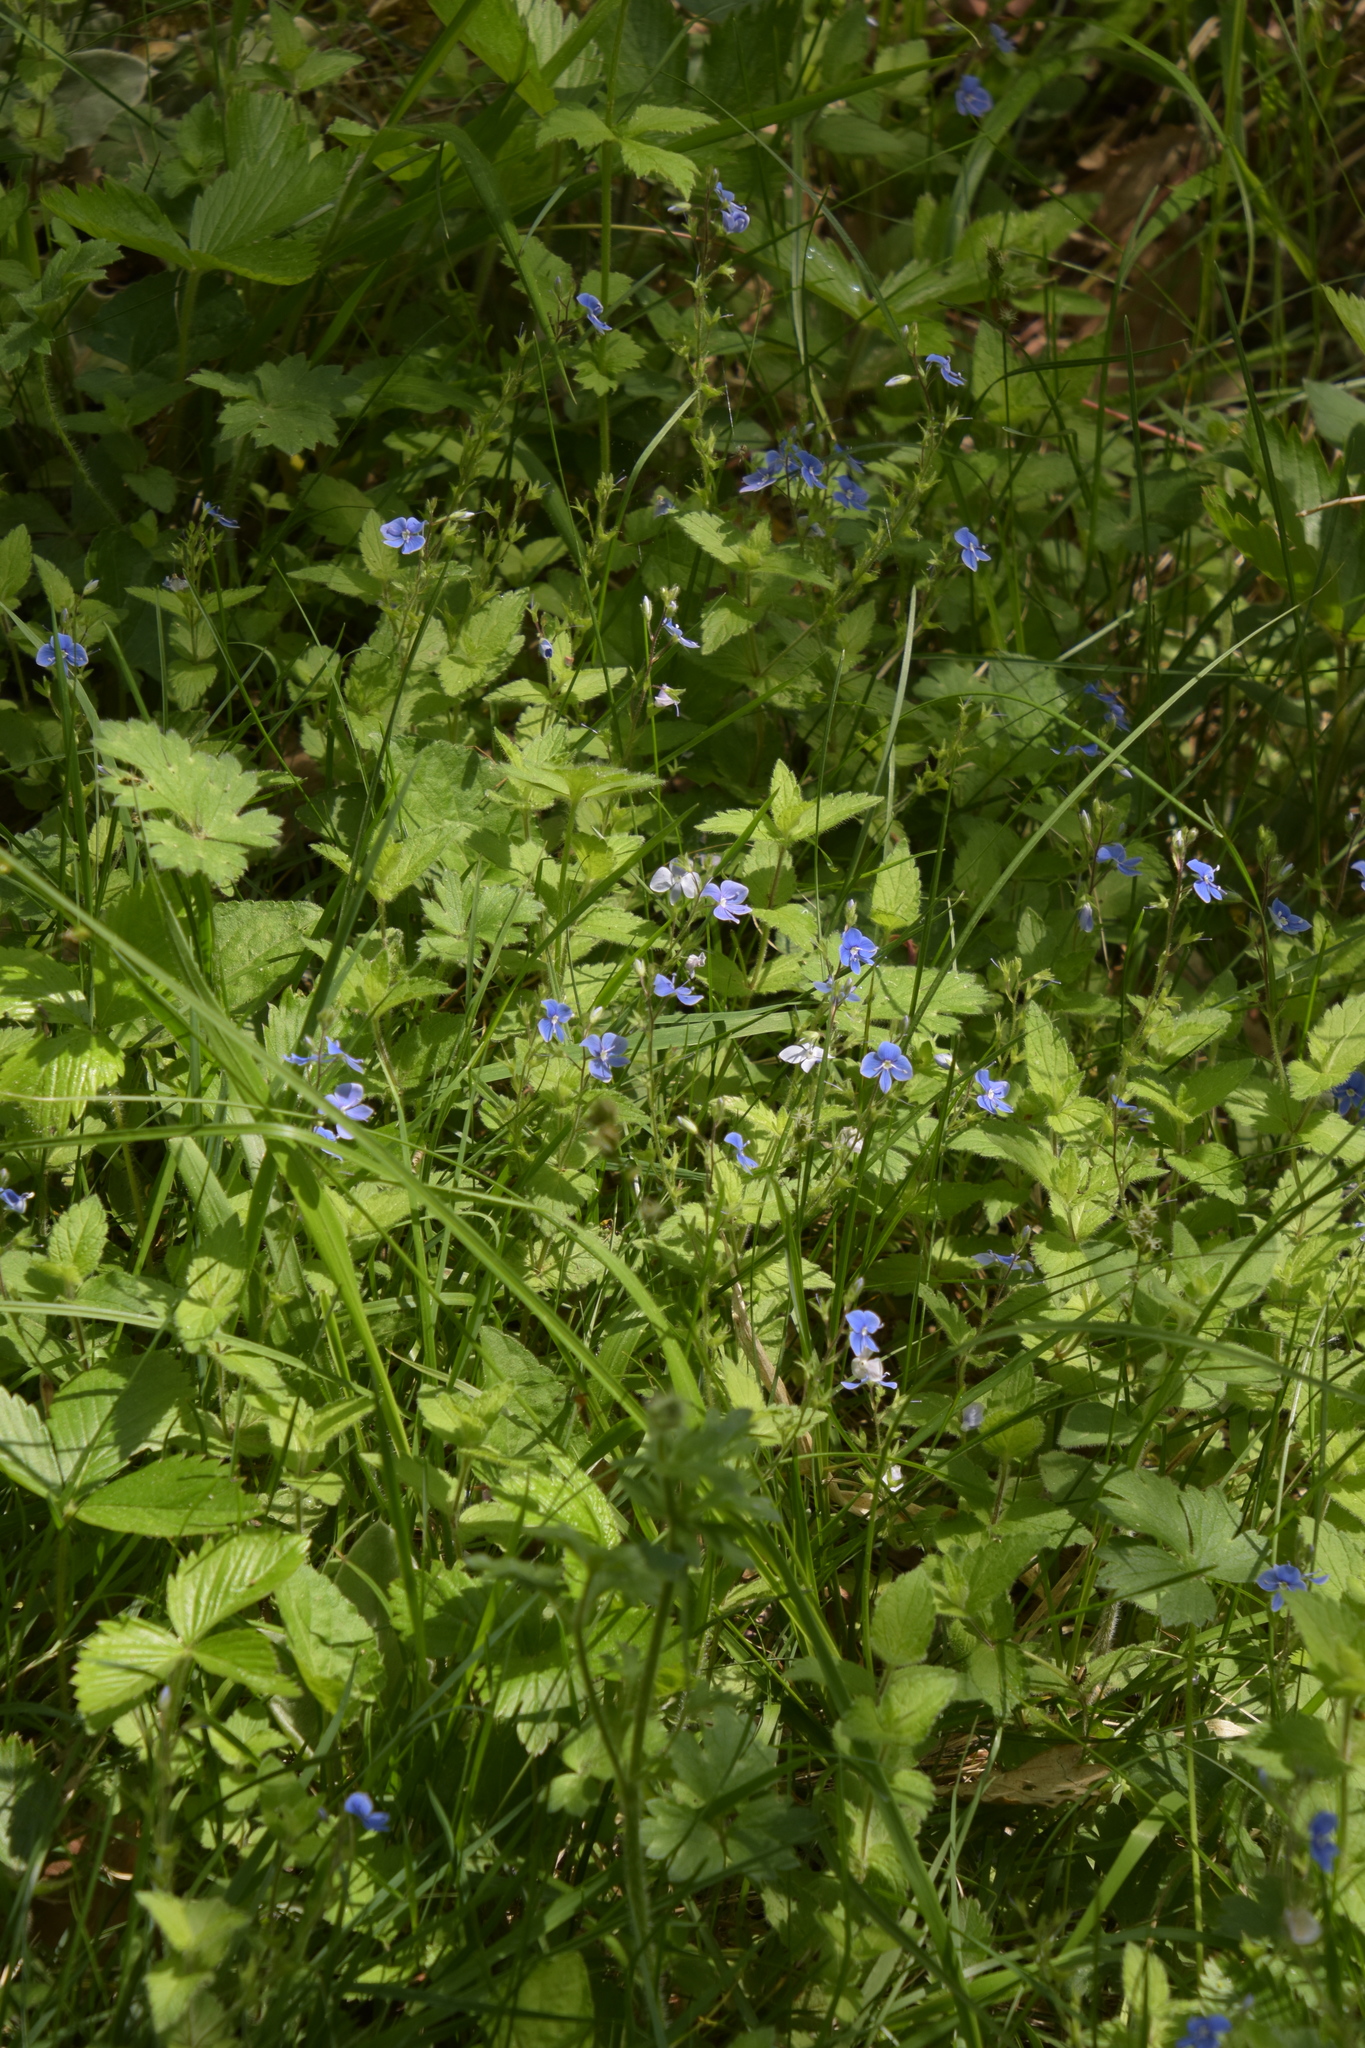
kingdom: Plantae
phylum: Tracheophyta
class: Magnoliopsida
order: Lamiales
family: Plantaginaceae
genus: Veronica
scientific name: Veronica chamaedrys
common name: Germander speedwell
